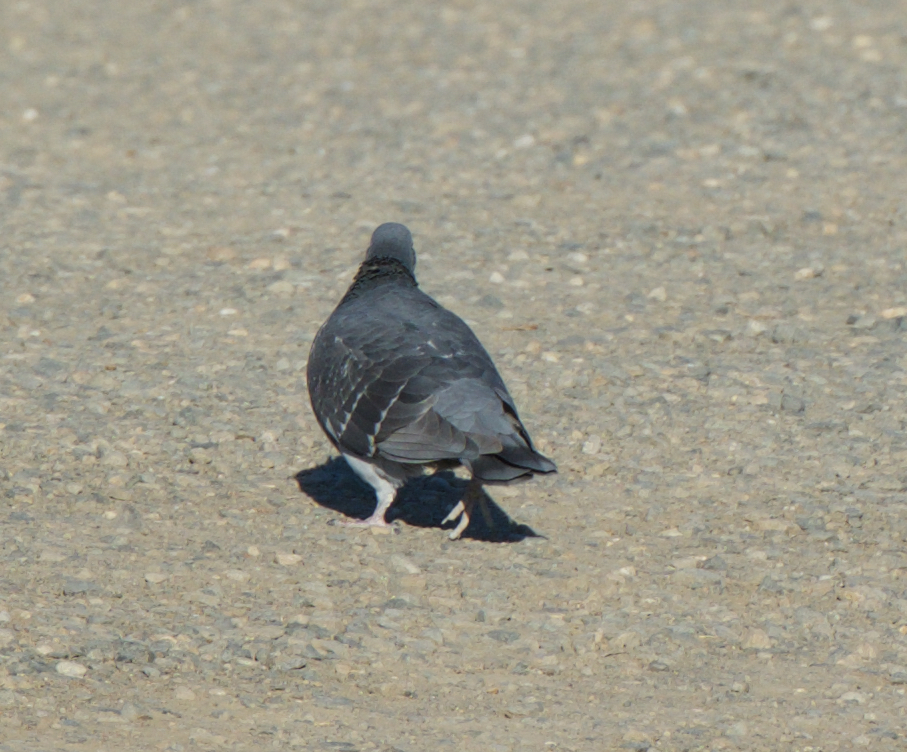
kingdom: Animalia
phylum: Chordata
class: Aves
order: Columbiformes
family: Columbidae
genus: Columba
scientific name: Columba livia
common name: Rock pigeon
